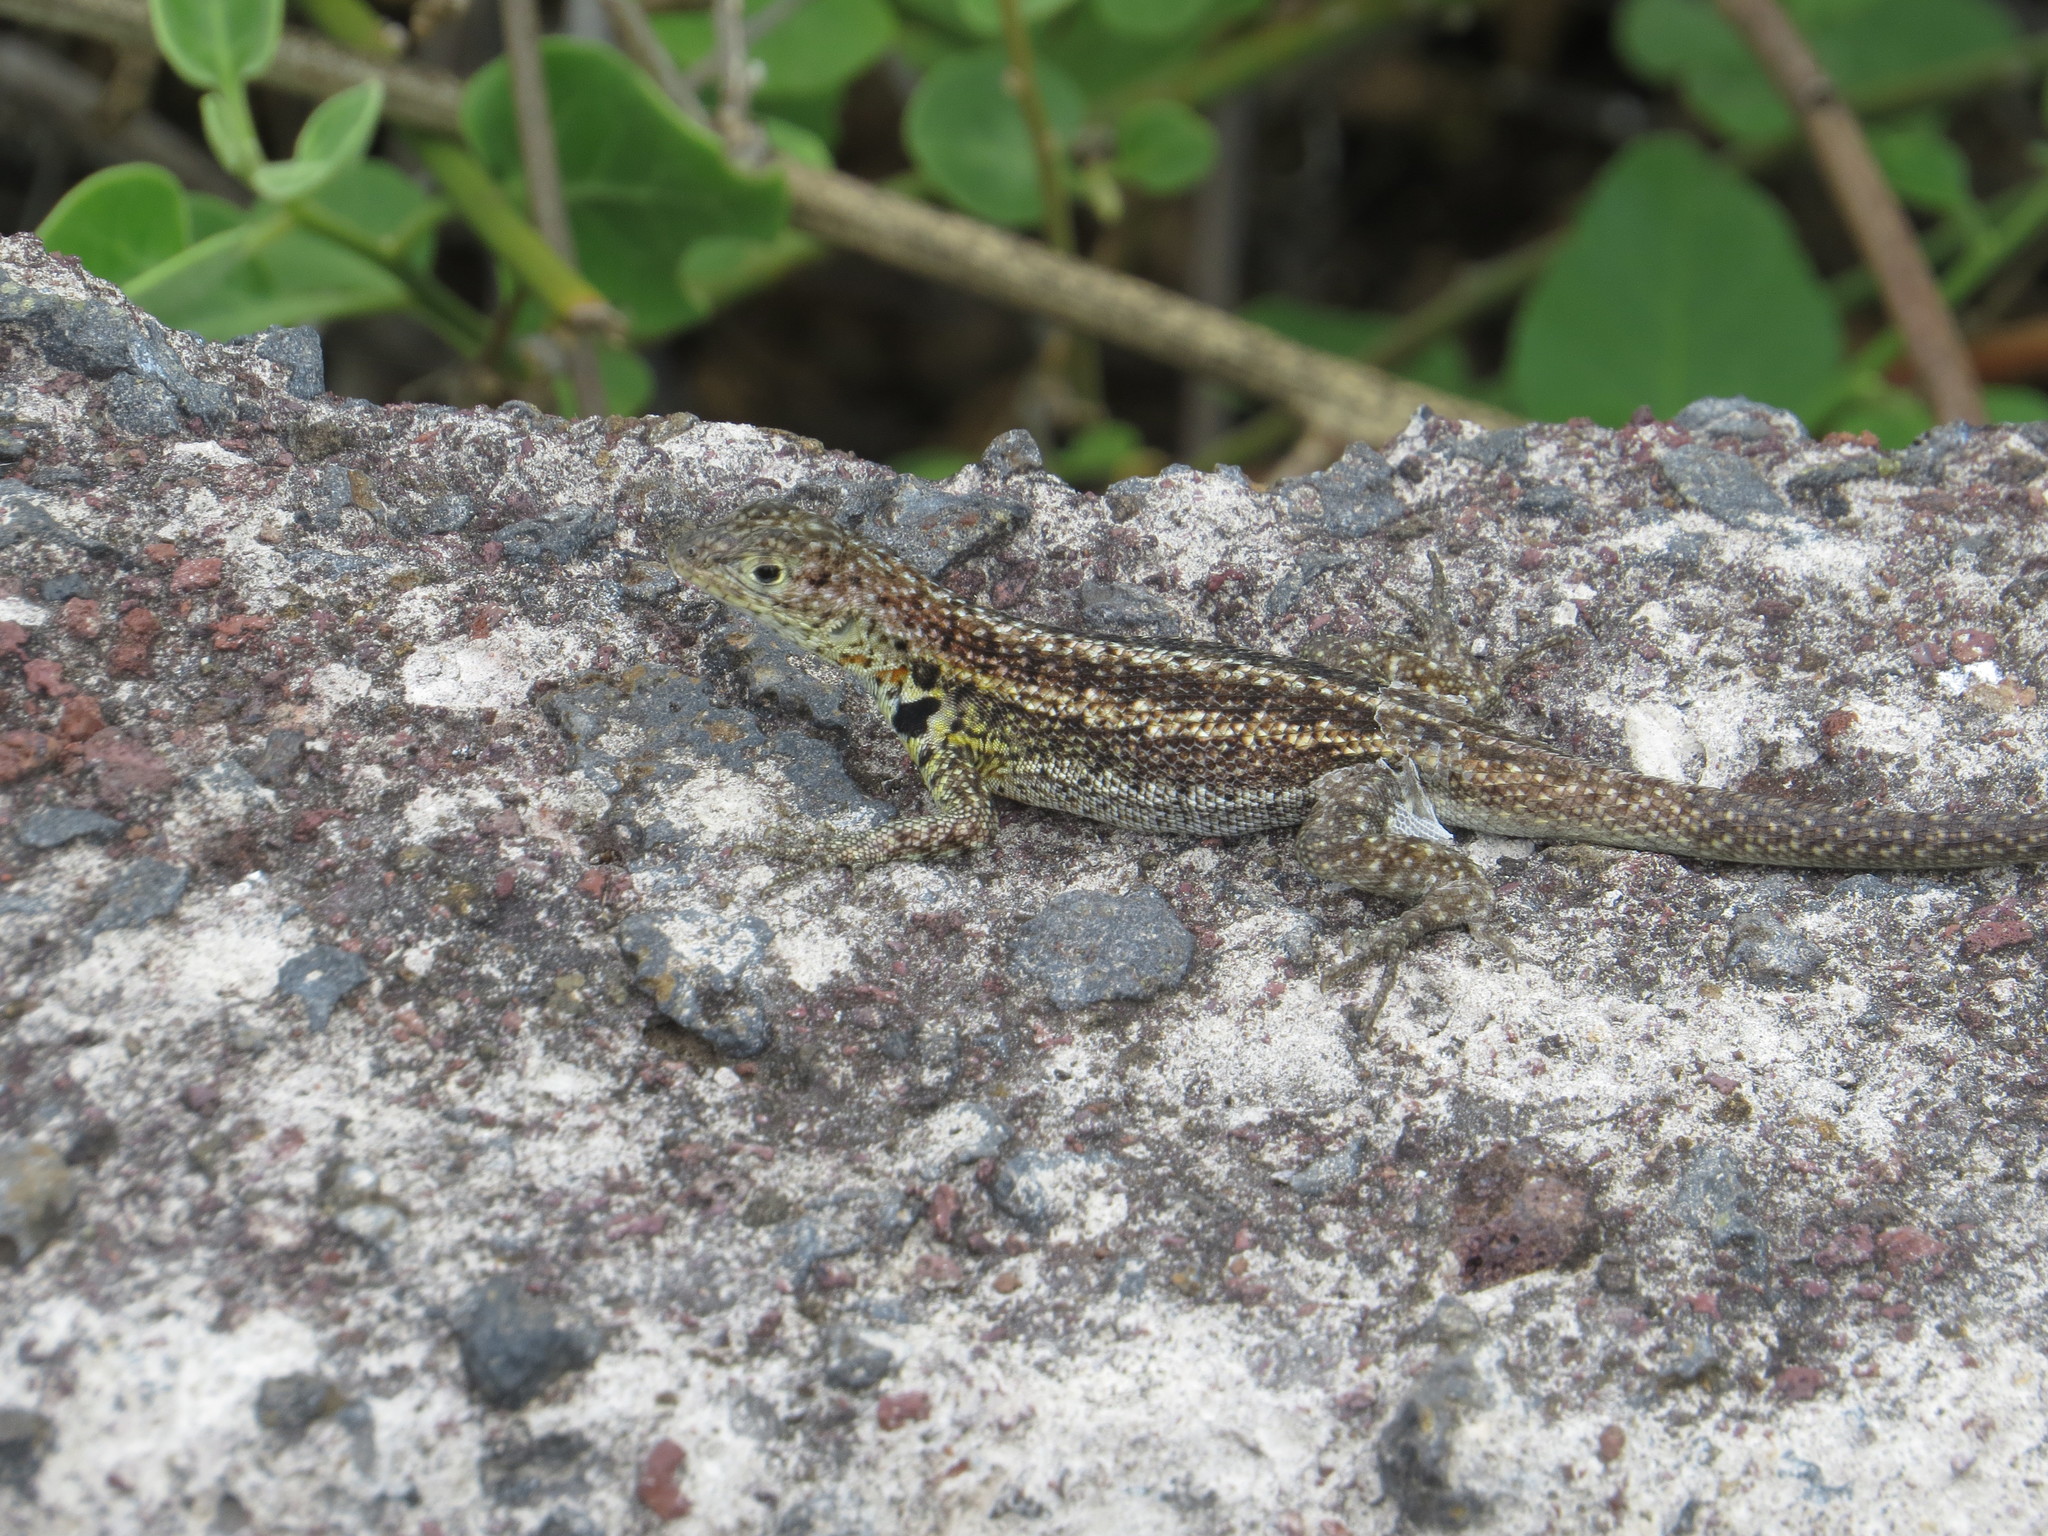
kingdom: Animalia
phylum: Chordata
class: Squamata
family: Tropiduridae
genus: Microlophus
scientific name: Microlophus indefatigabilis
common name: Galapagos lava lizard
